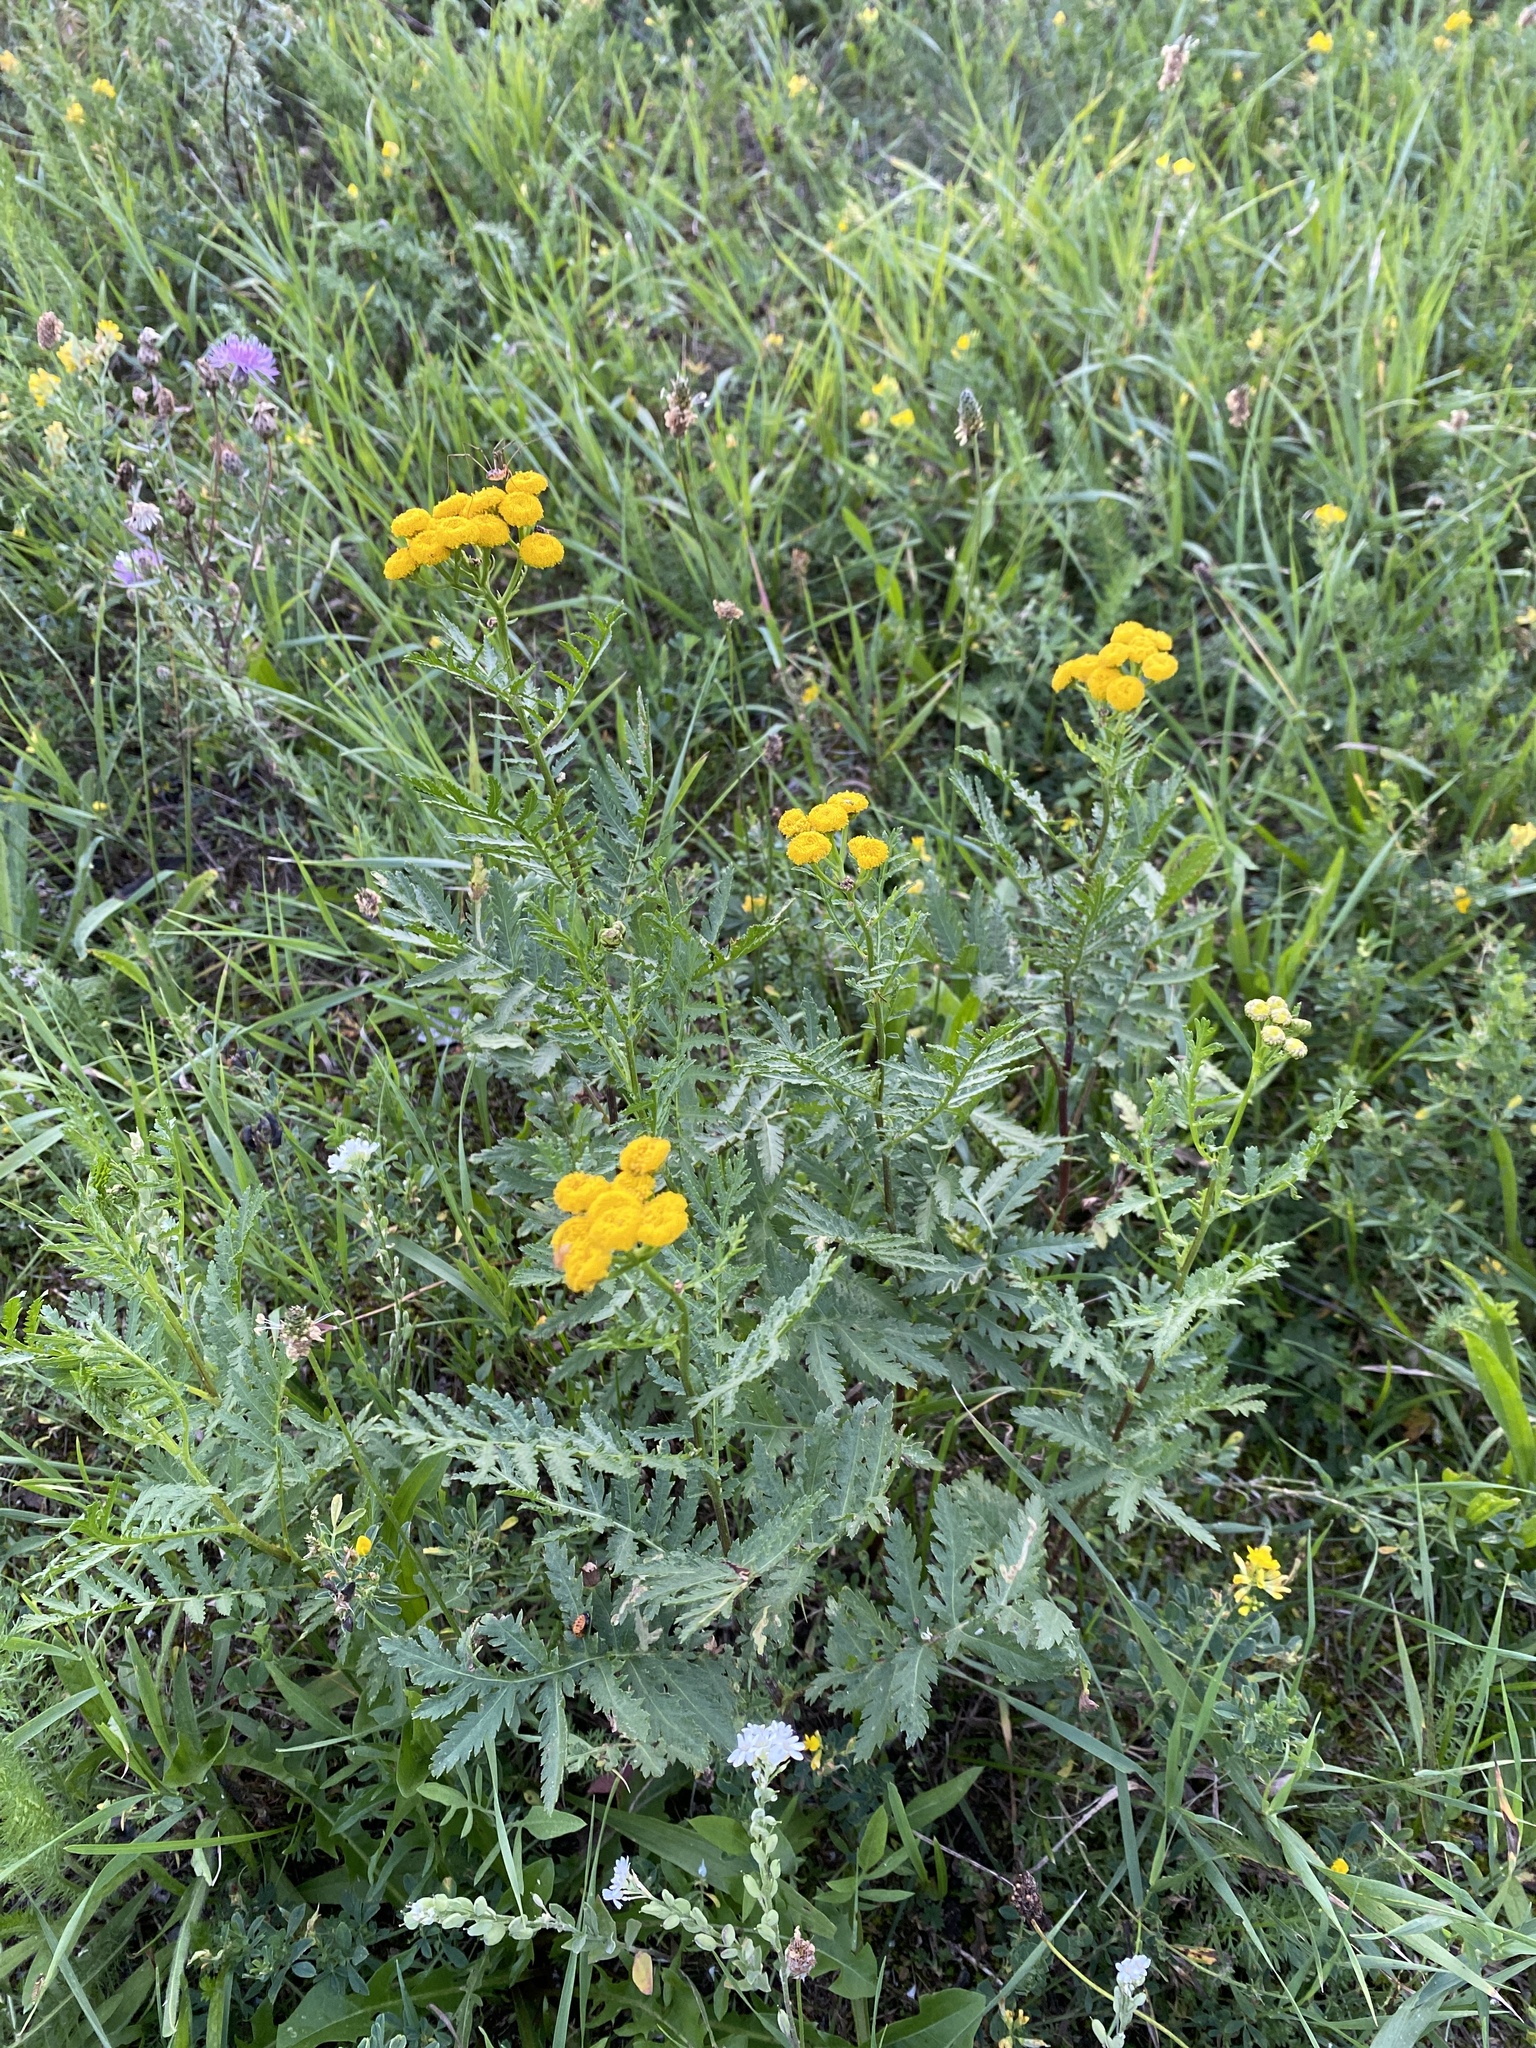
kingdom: Plantae
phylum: Tracheophyta
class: Magnoliopsida
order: Asterales
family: Asteraceae
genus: Tanacetum
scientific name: Tanacetum vulgare
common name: Common tansy
